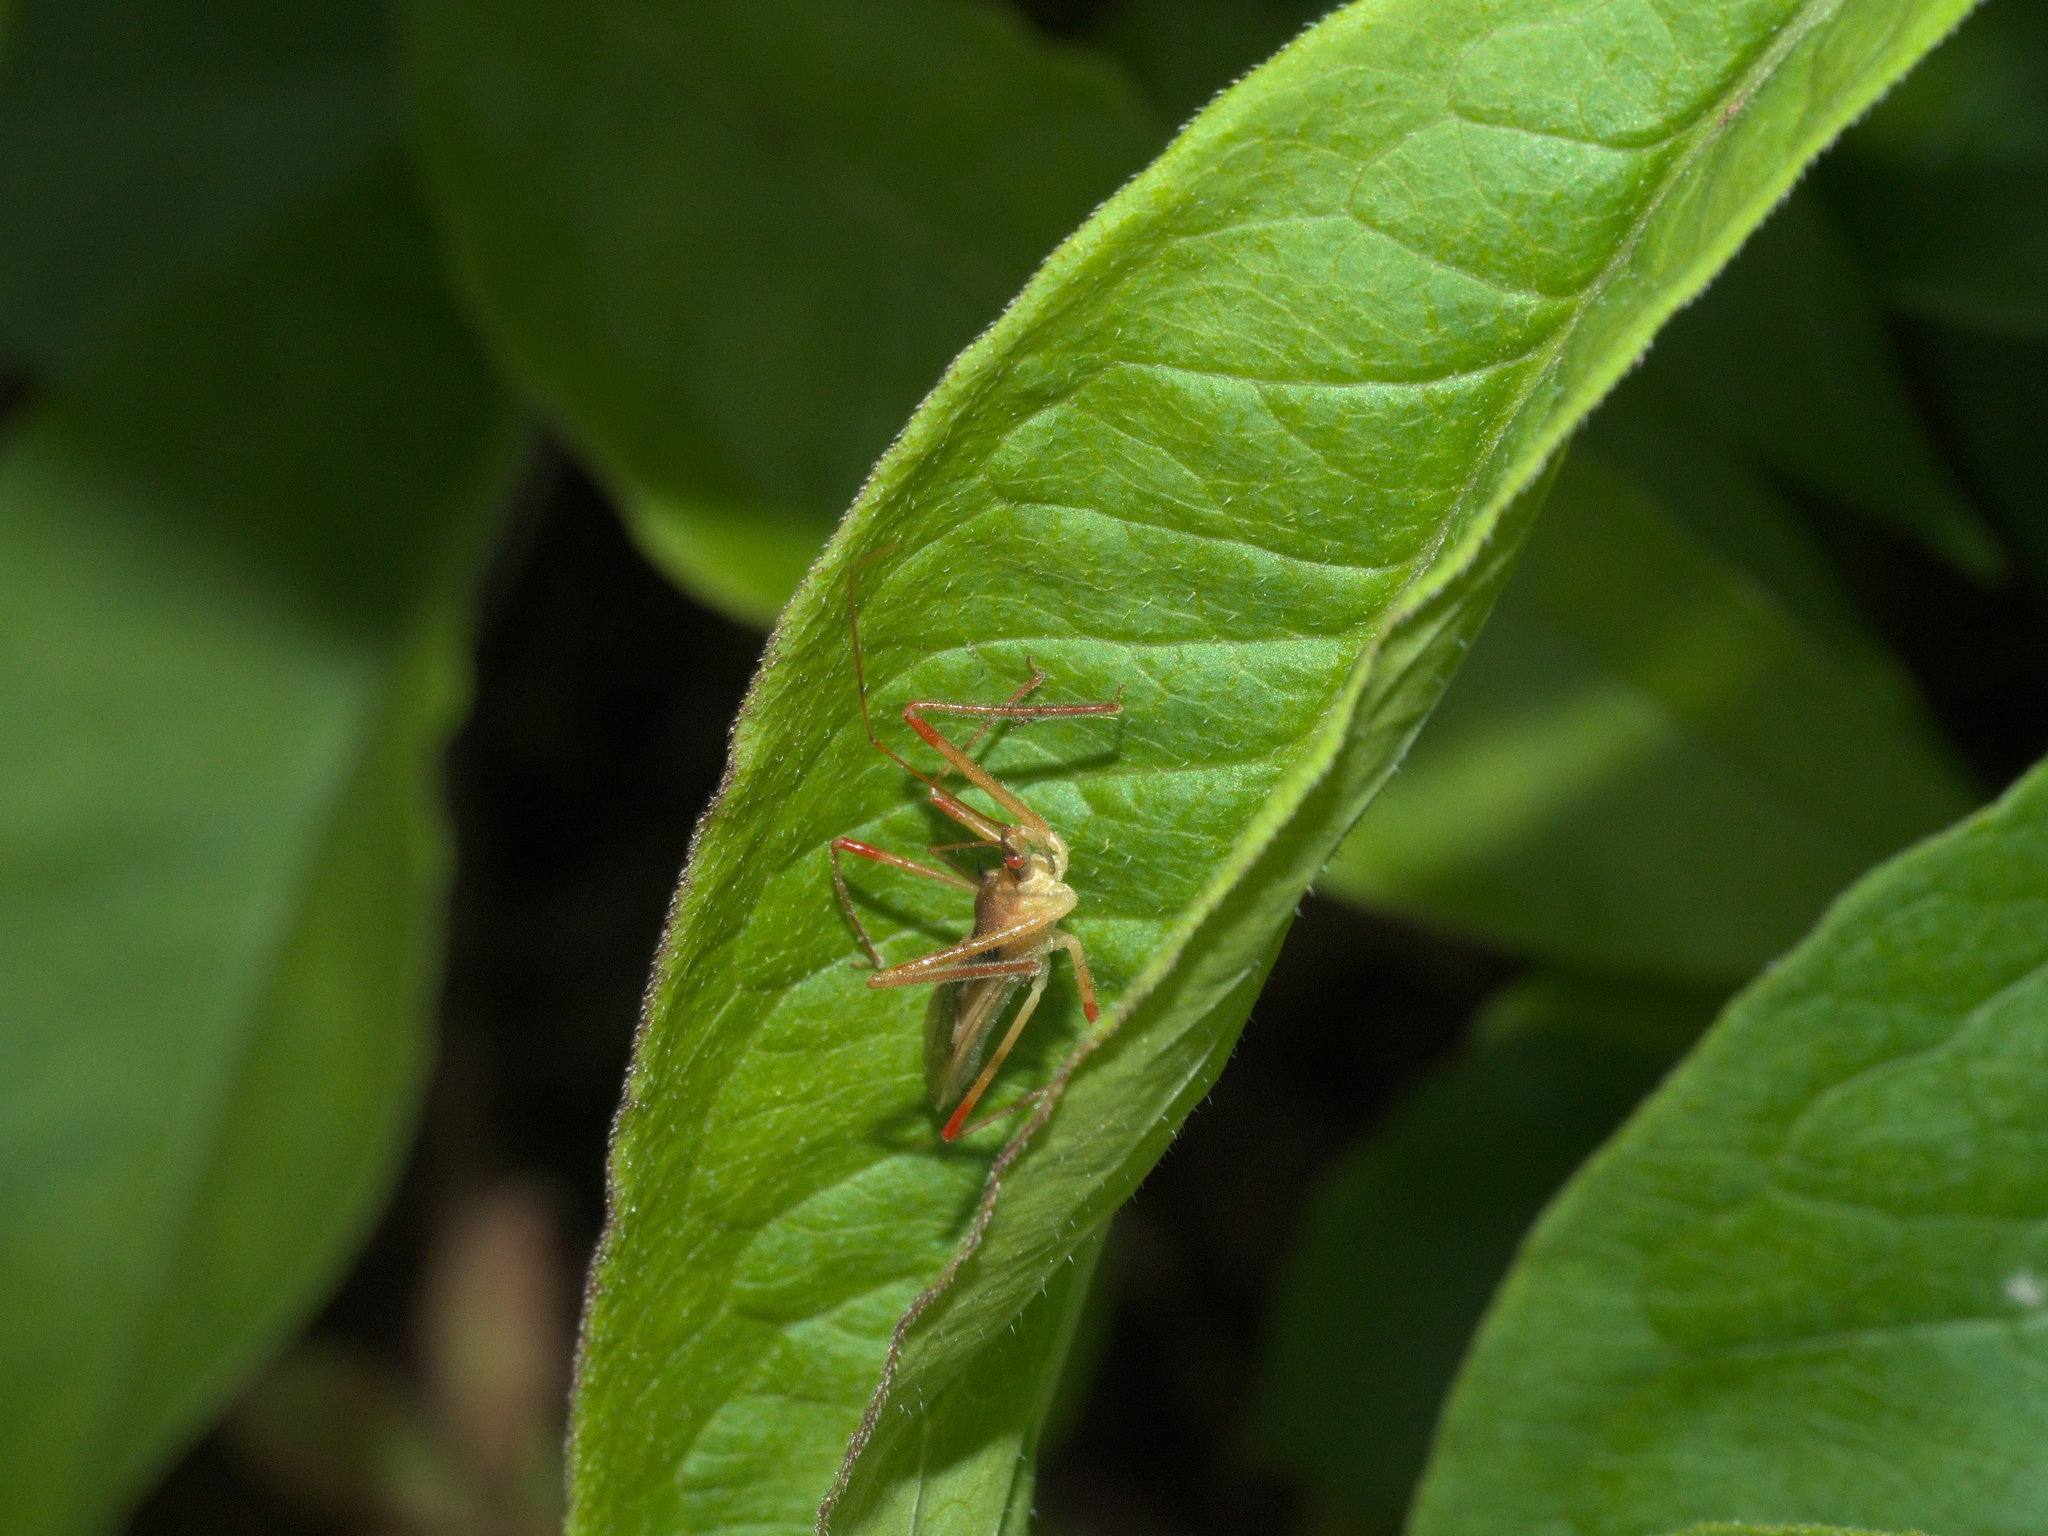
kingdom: Animalia
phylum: Arthropoda
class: Insecta
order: Hemiptera
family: Reduviidae
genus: Zelus
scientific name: Zelus luridus
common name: Pale green assassin bug
